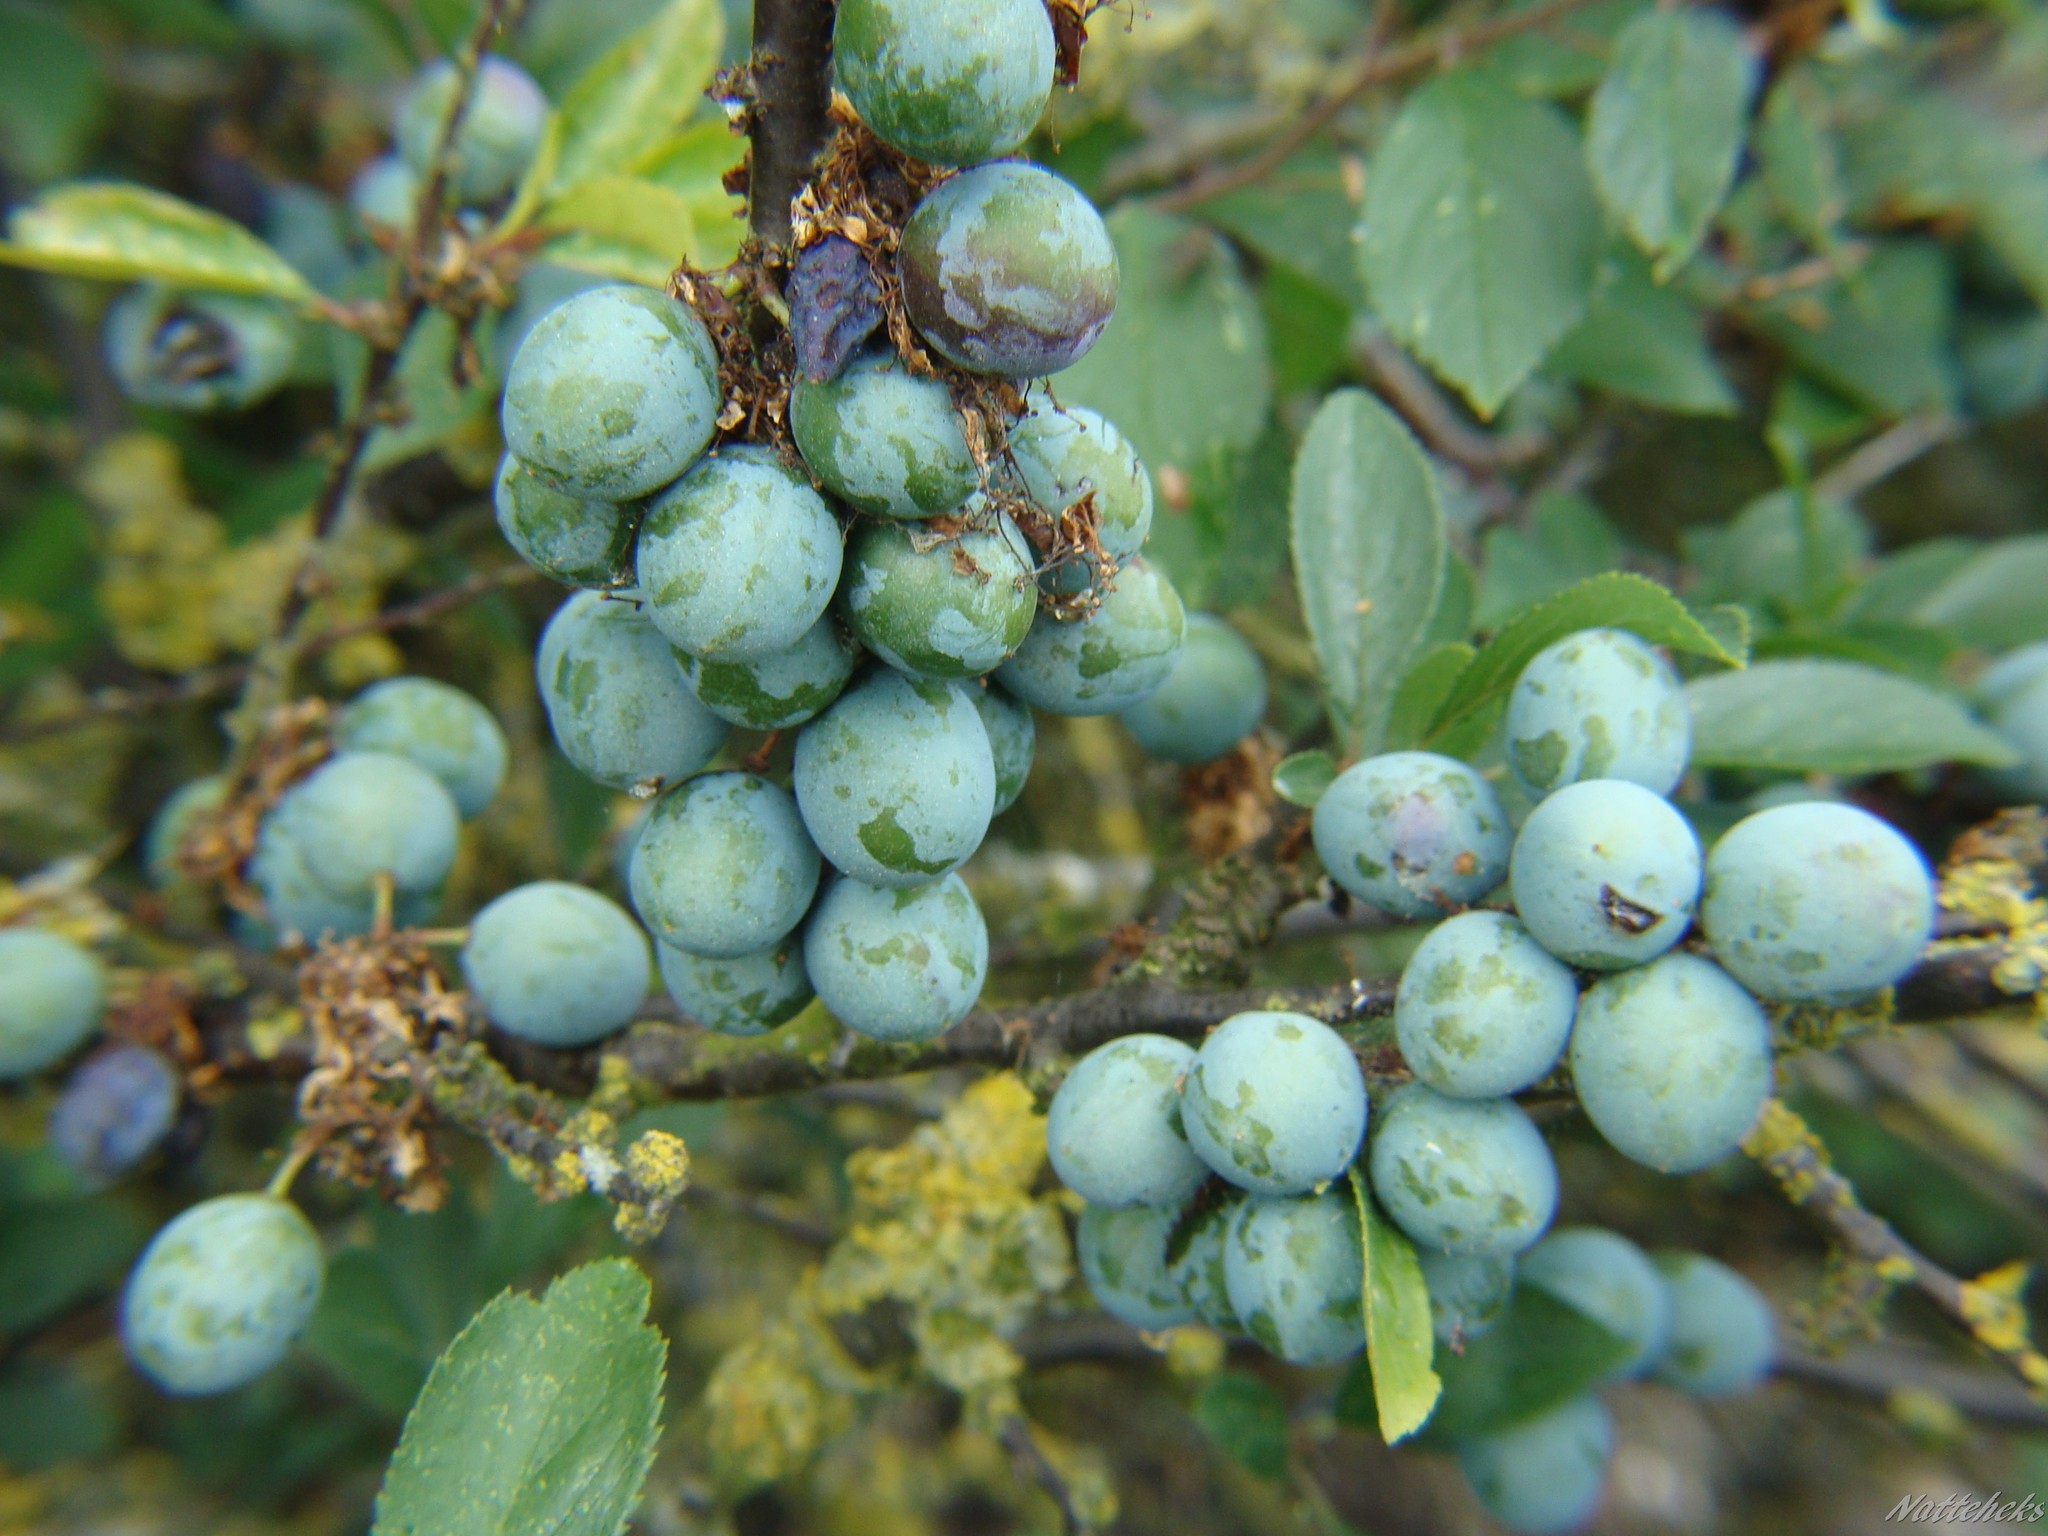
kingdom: Plantae
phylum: Tracheophyta
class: Magnoliopsida
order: Rosales
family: Rosaceae
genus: Prunus
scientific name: Prunus spinosa
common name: Blackthorn
